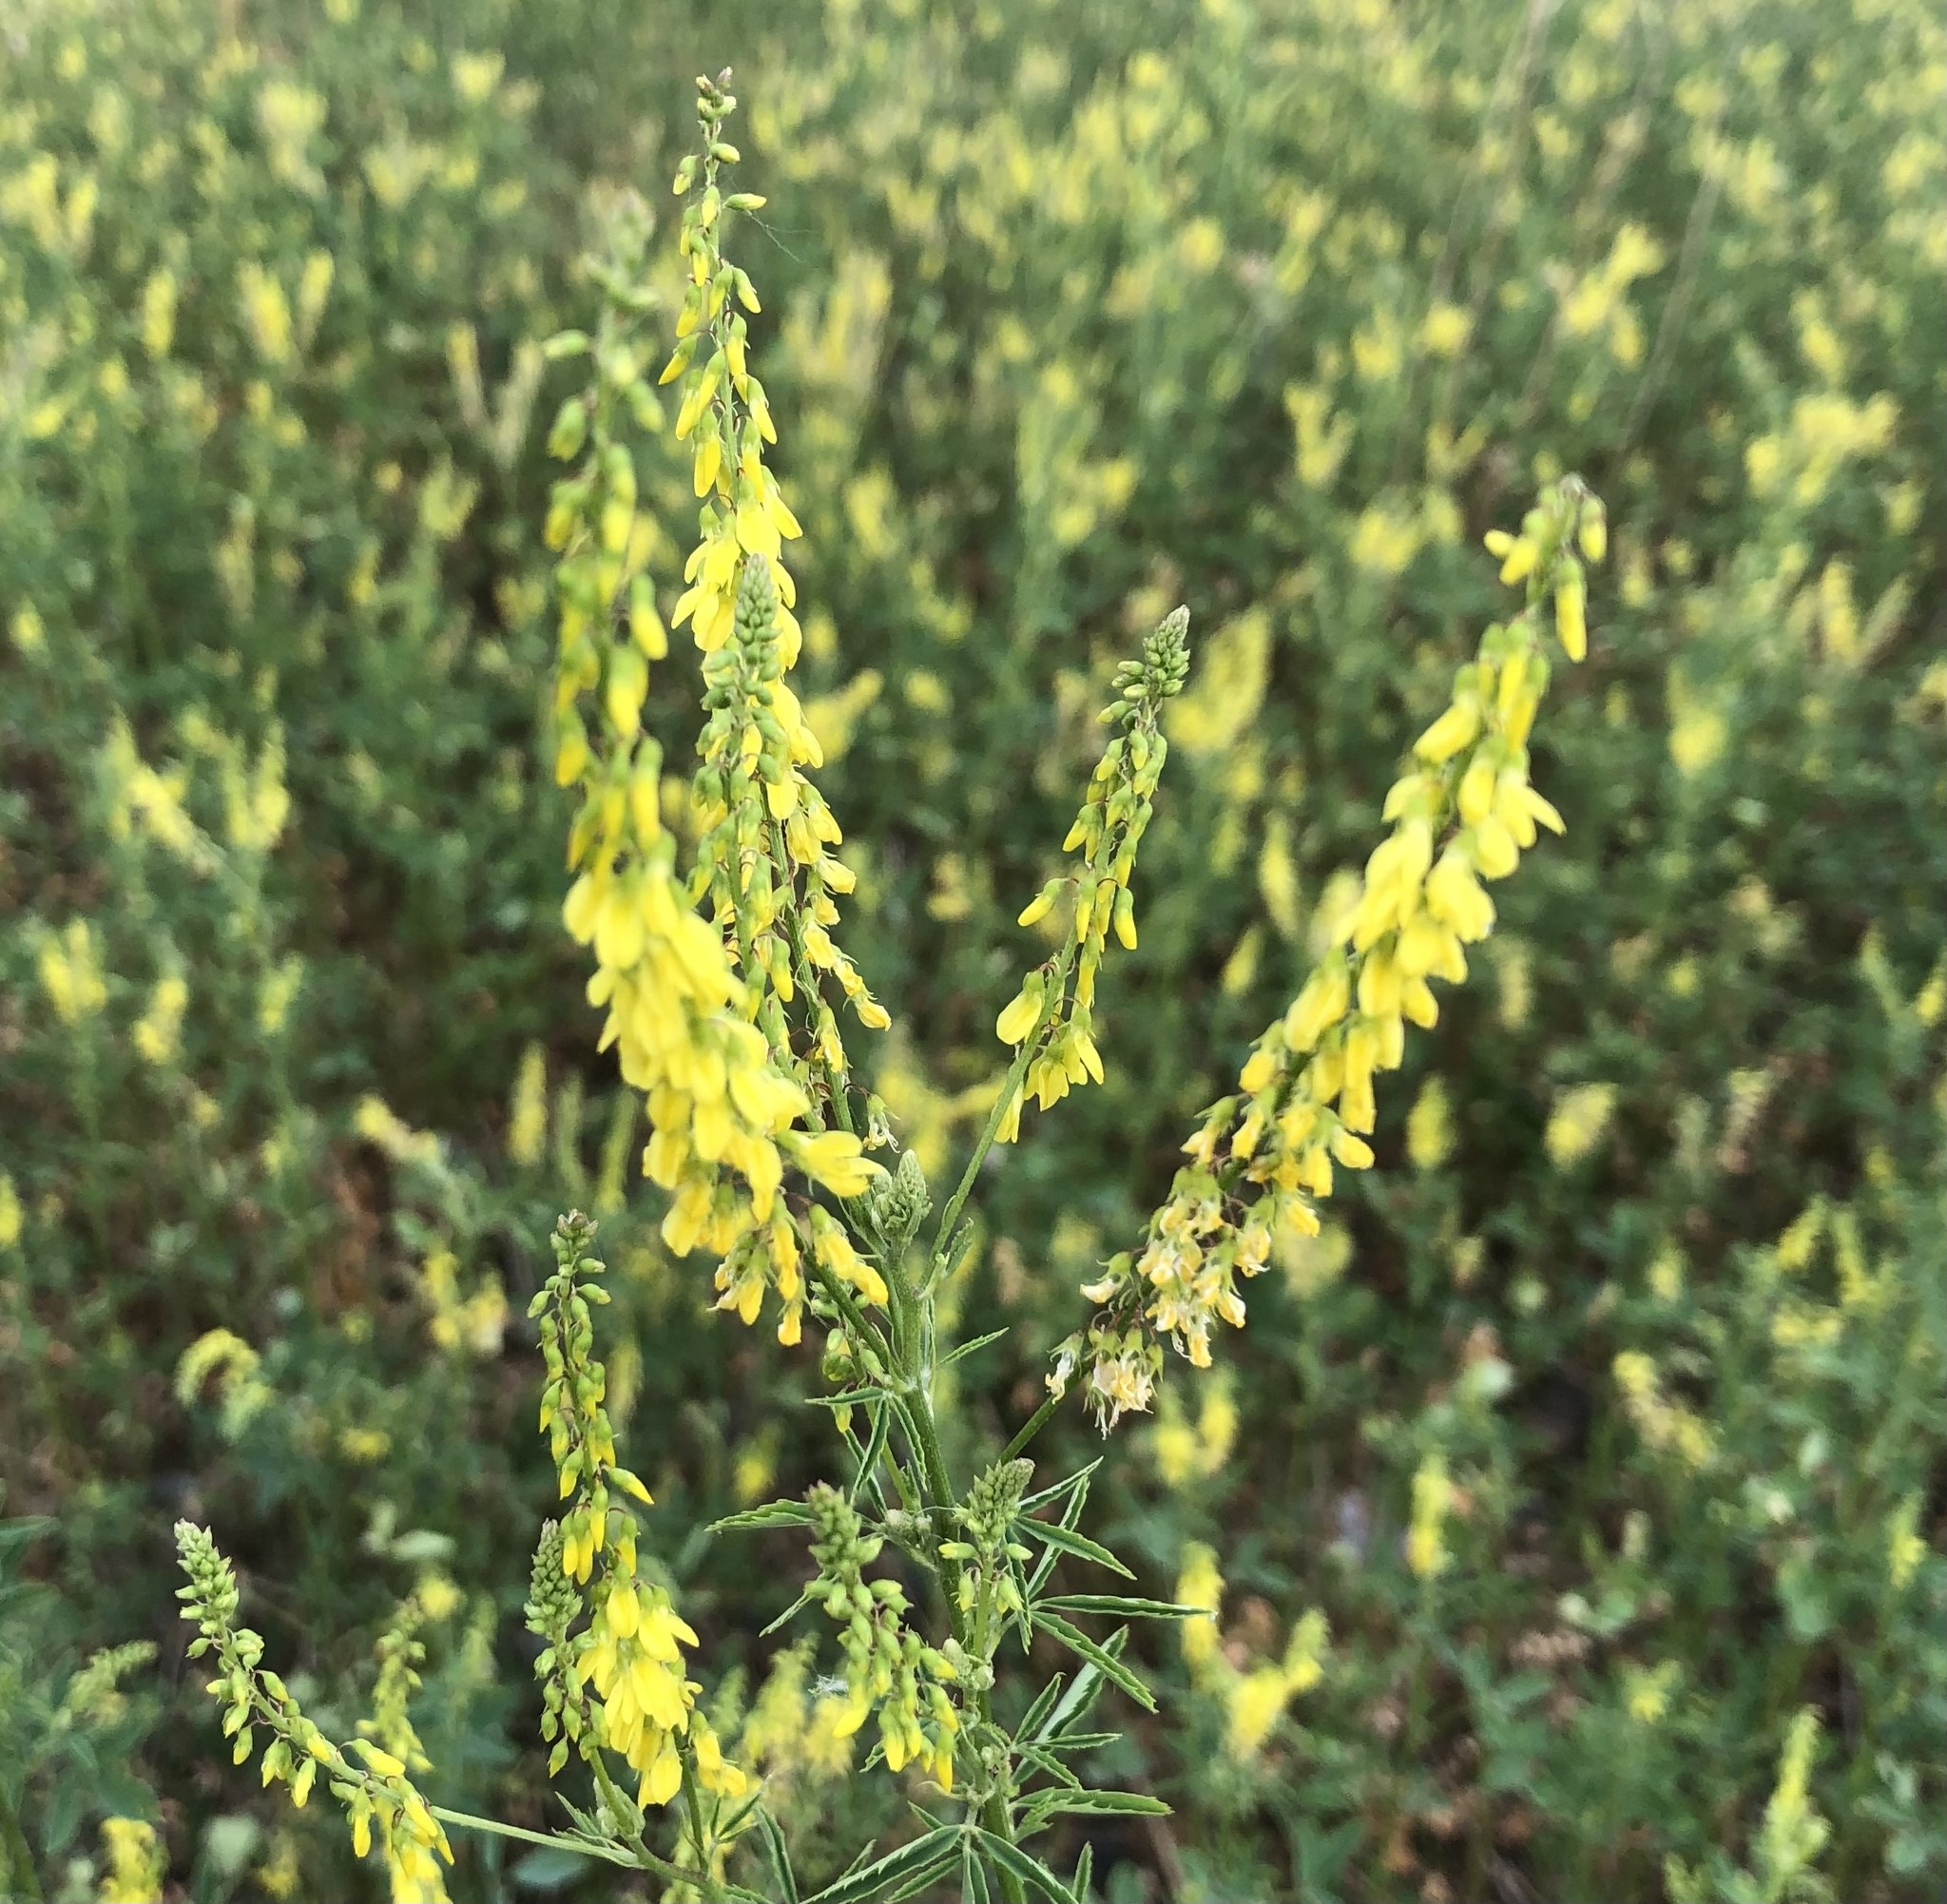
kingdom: Plantae
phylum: Tracheophyta
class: Magnoliopsida
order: Fabales
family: Fabaceae
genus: Melilotus
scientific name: Melilotus officinalis
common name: Sweetclover
